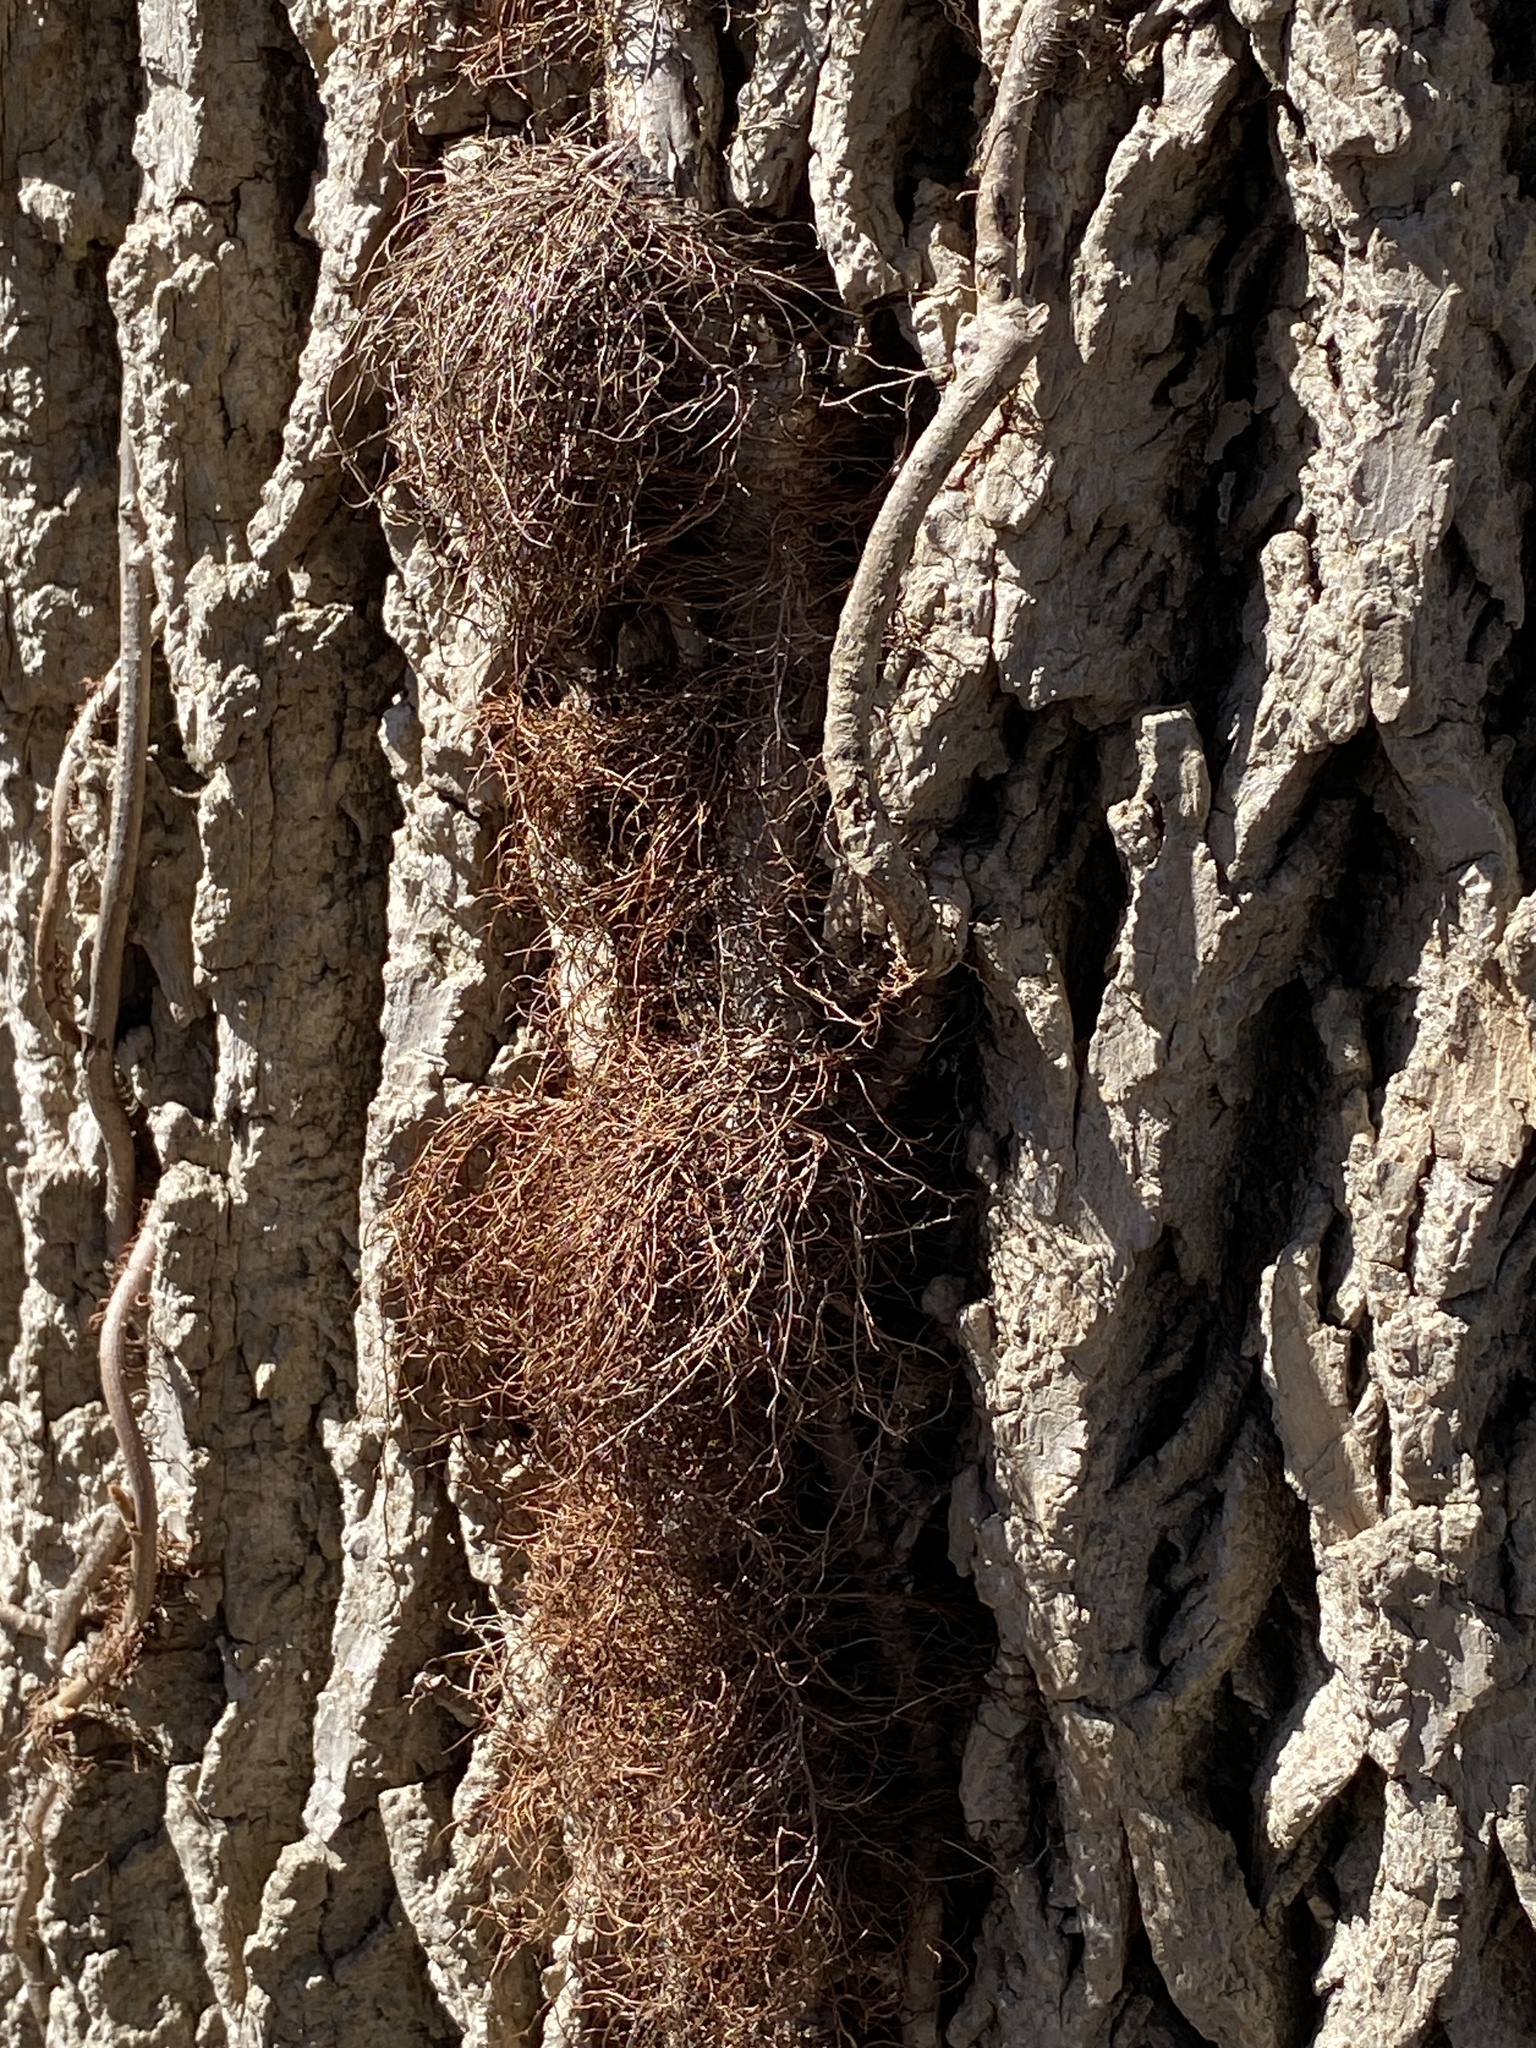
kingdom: Plantae
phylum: Tracheophyta
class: Magnoliopsida
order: Sapindales
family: Anacardiaceae
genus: Toxicodendron
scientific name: Toxicodendron radicans
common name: Poison ivy
